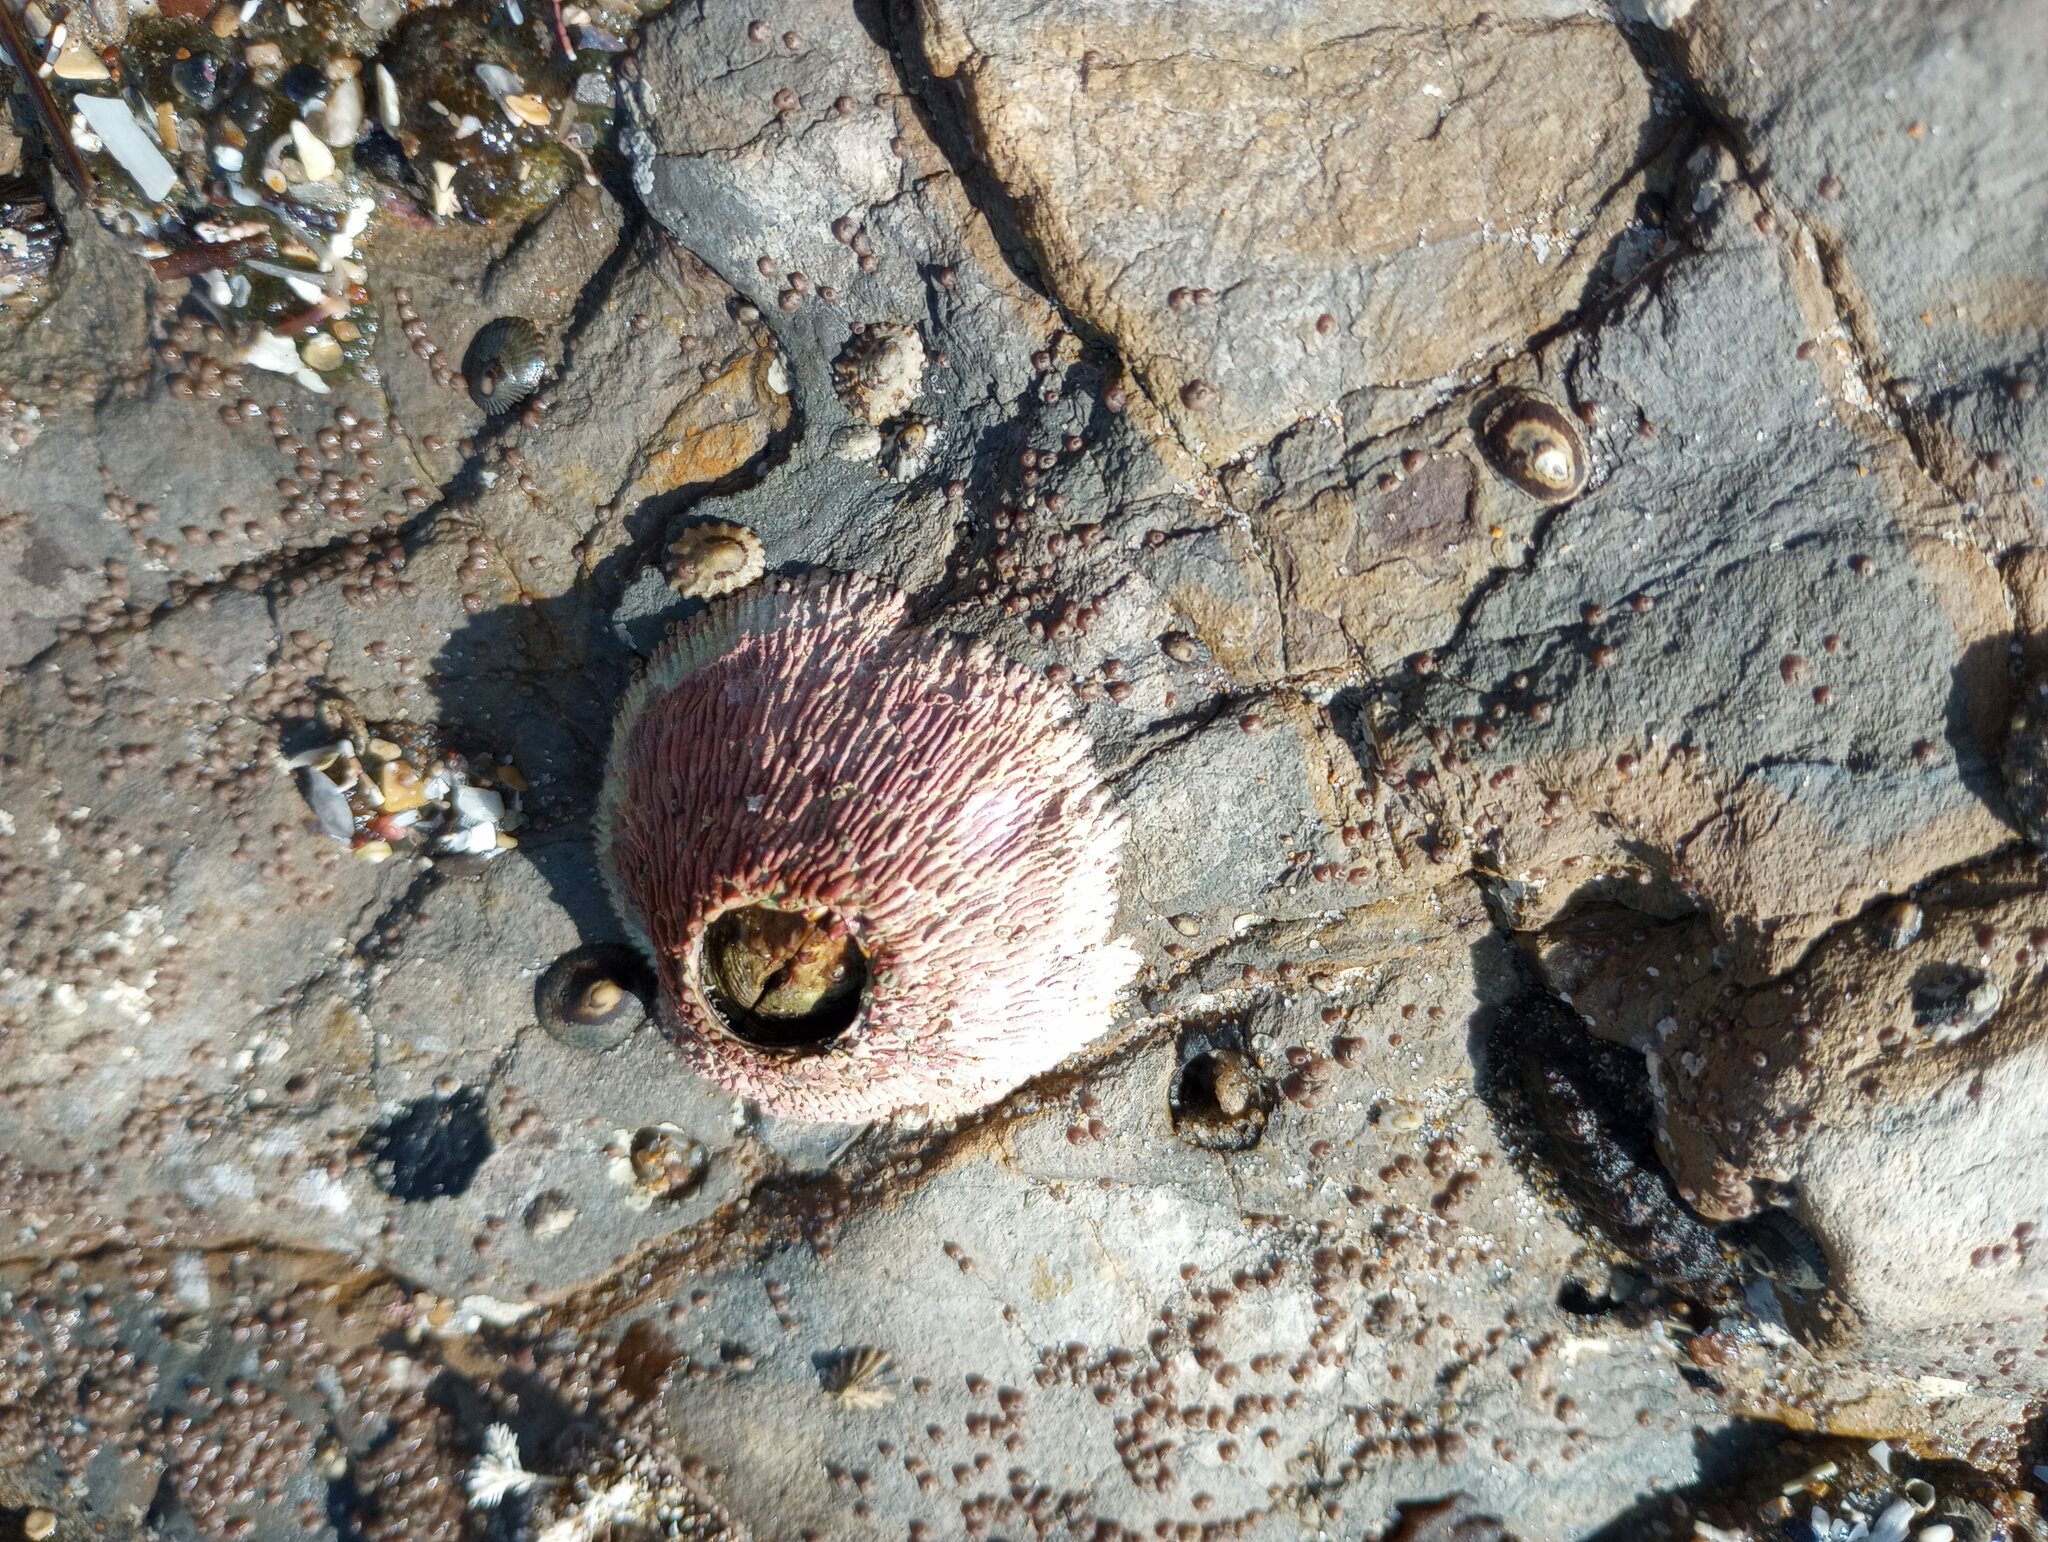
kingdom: Animalia
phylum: Arthropoda
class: Maxillopoda
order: Sessilia
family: Tetraclitidae
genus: Tetraclita
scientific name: Tetraclita rubescens
